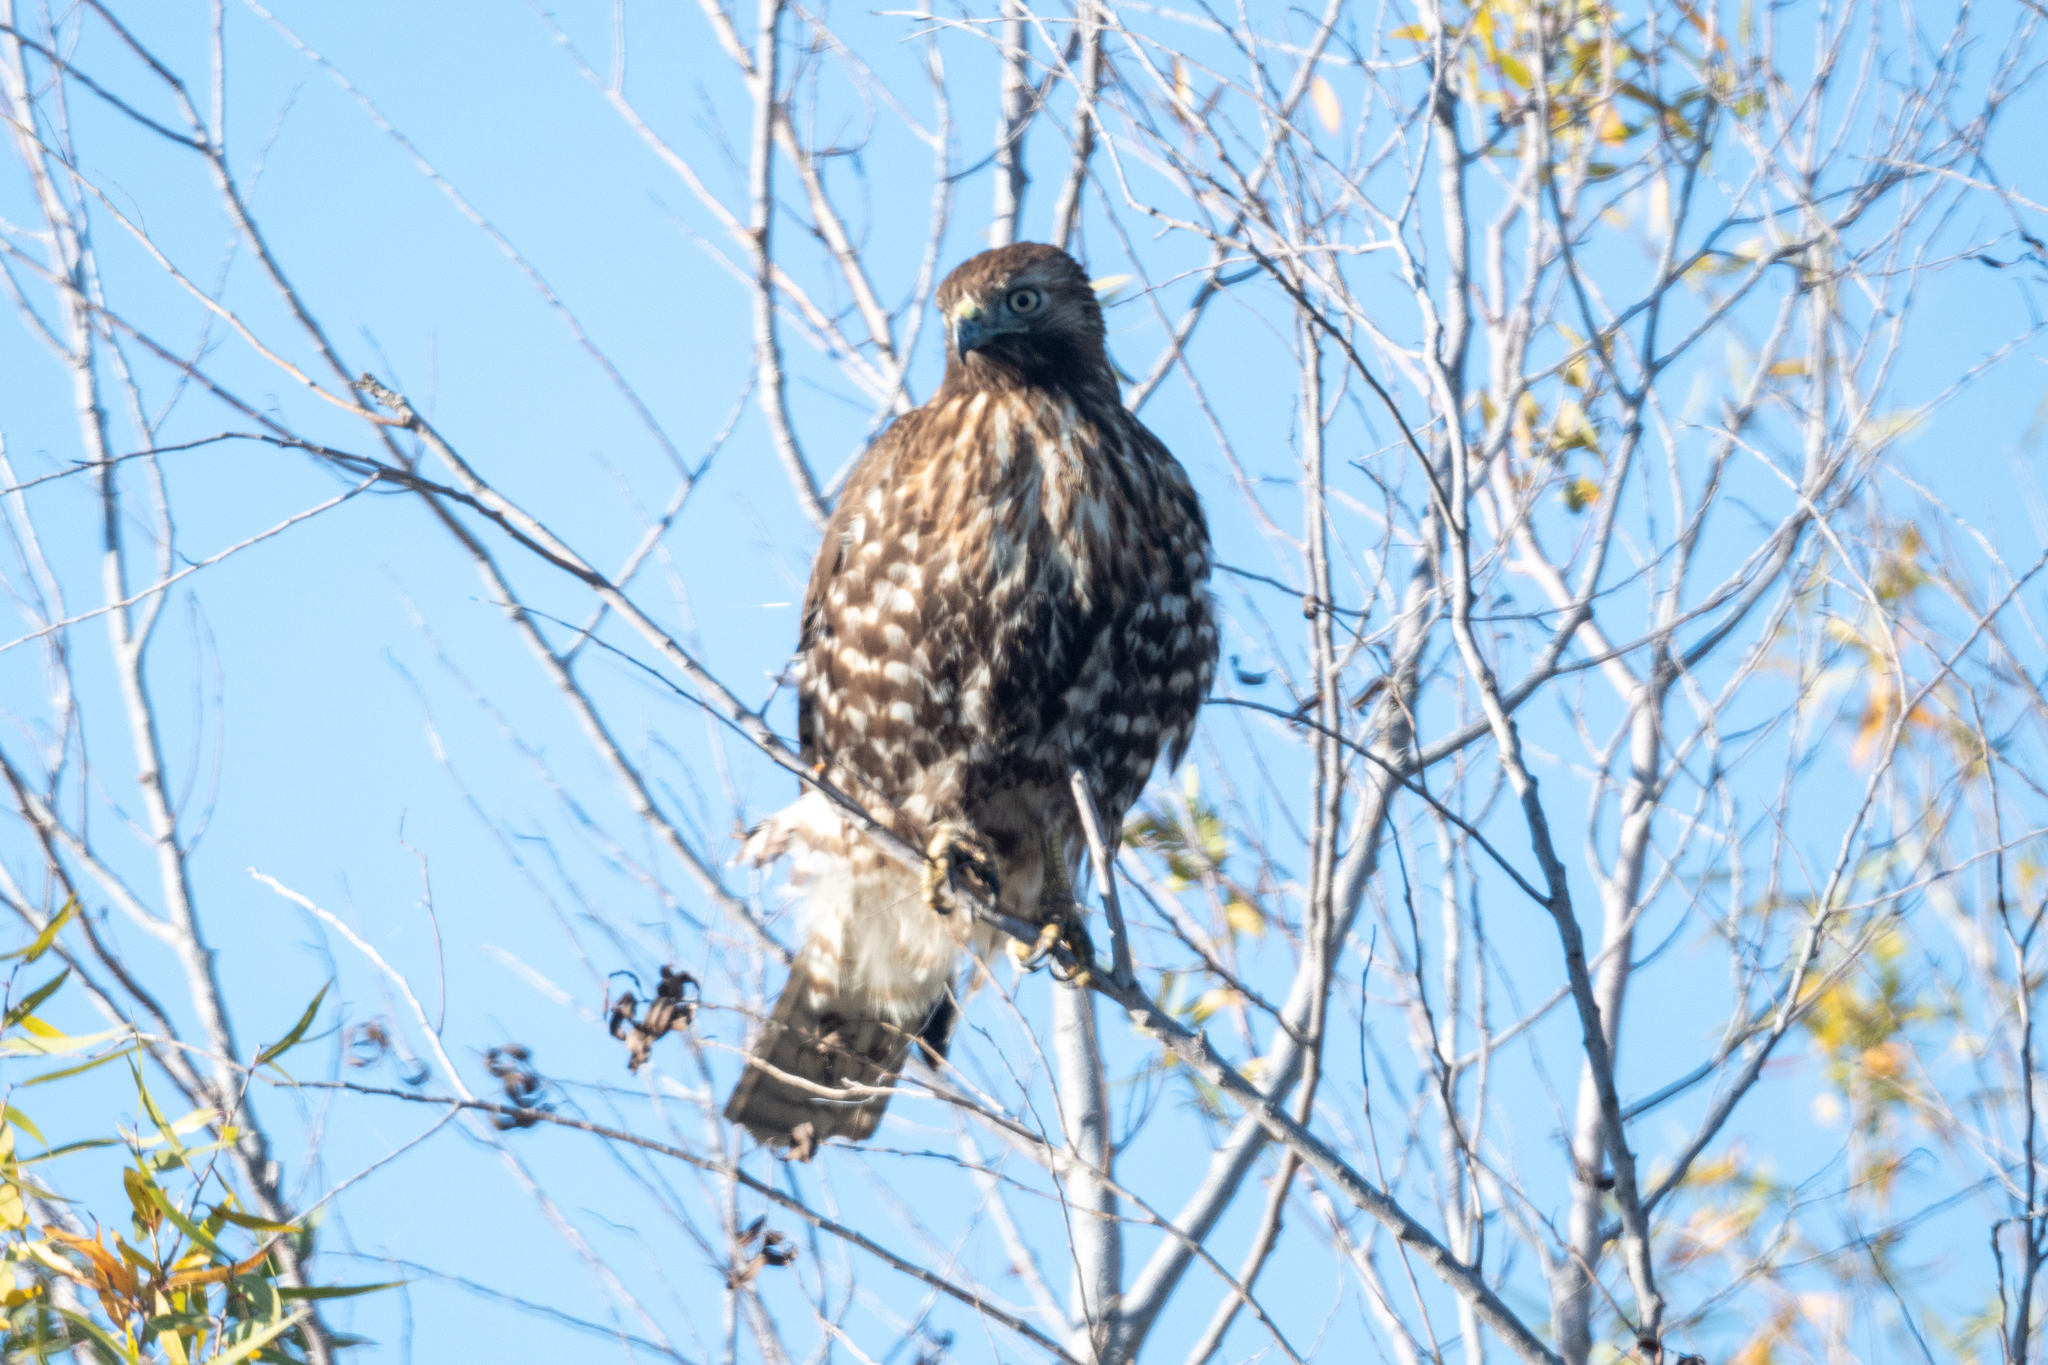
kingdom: Animalia
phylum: Chordata
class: Aves
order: Accipitriformes
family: Accipitridae
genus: Buteo
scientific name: Buteo jamaicensis
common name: Red-tailed hawk
